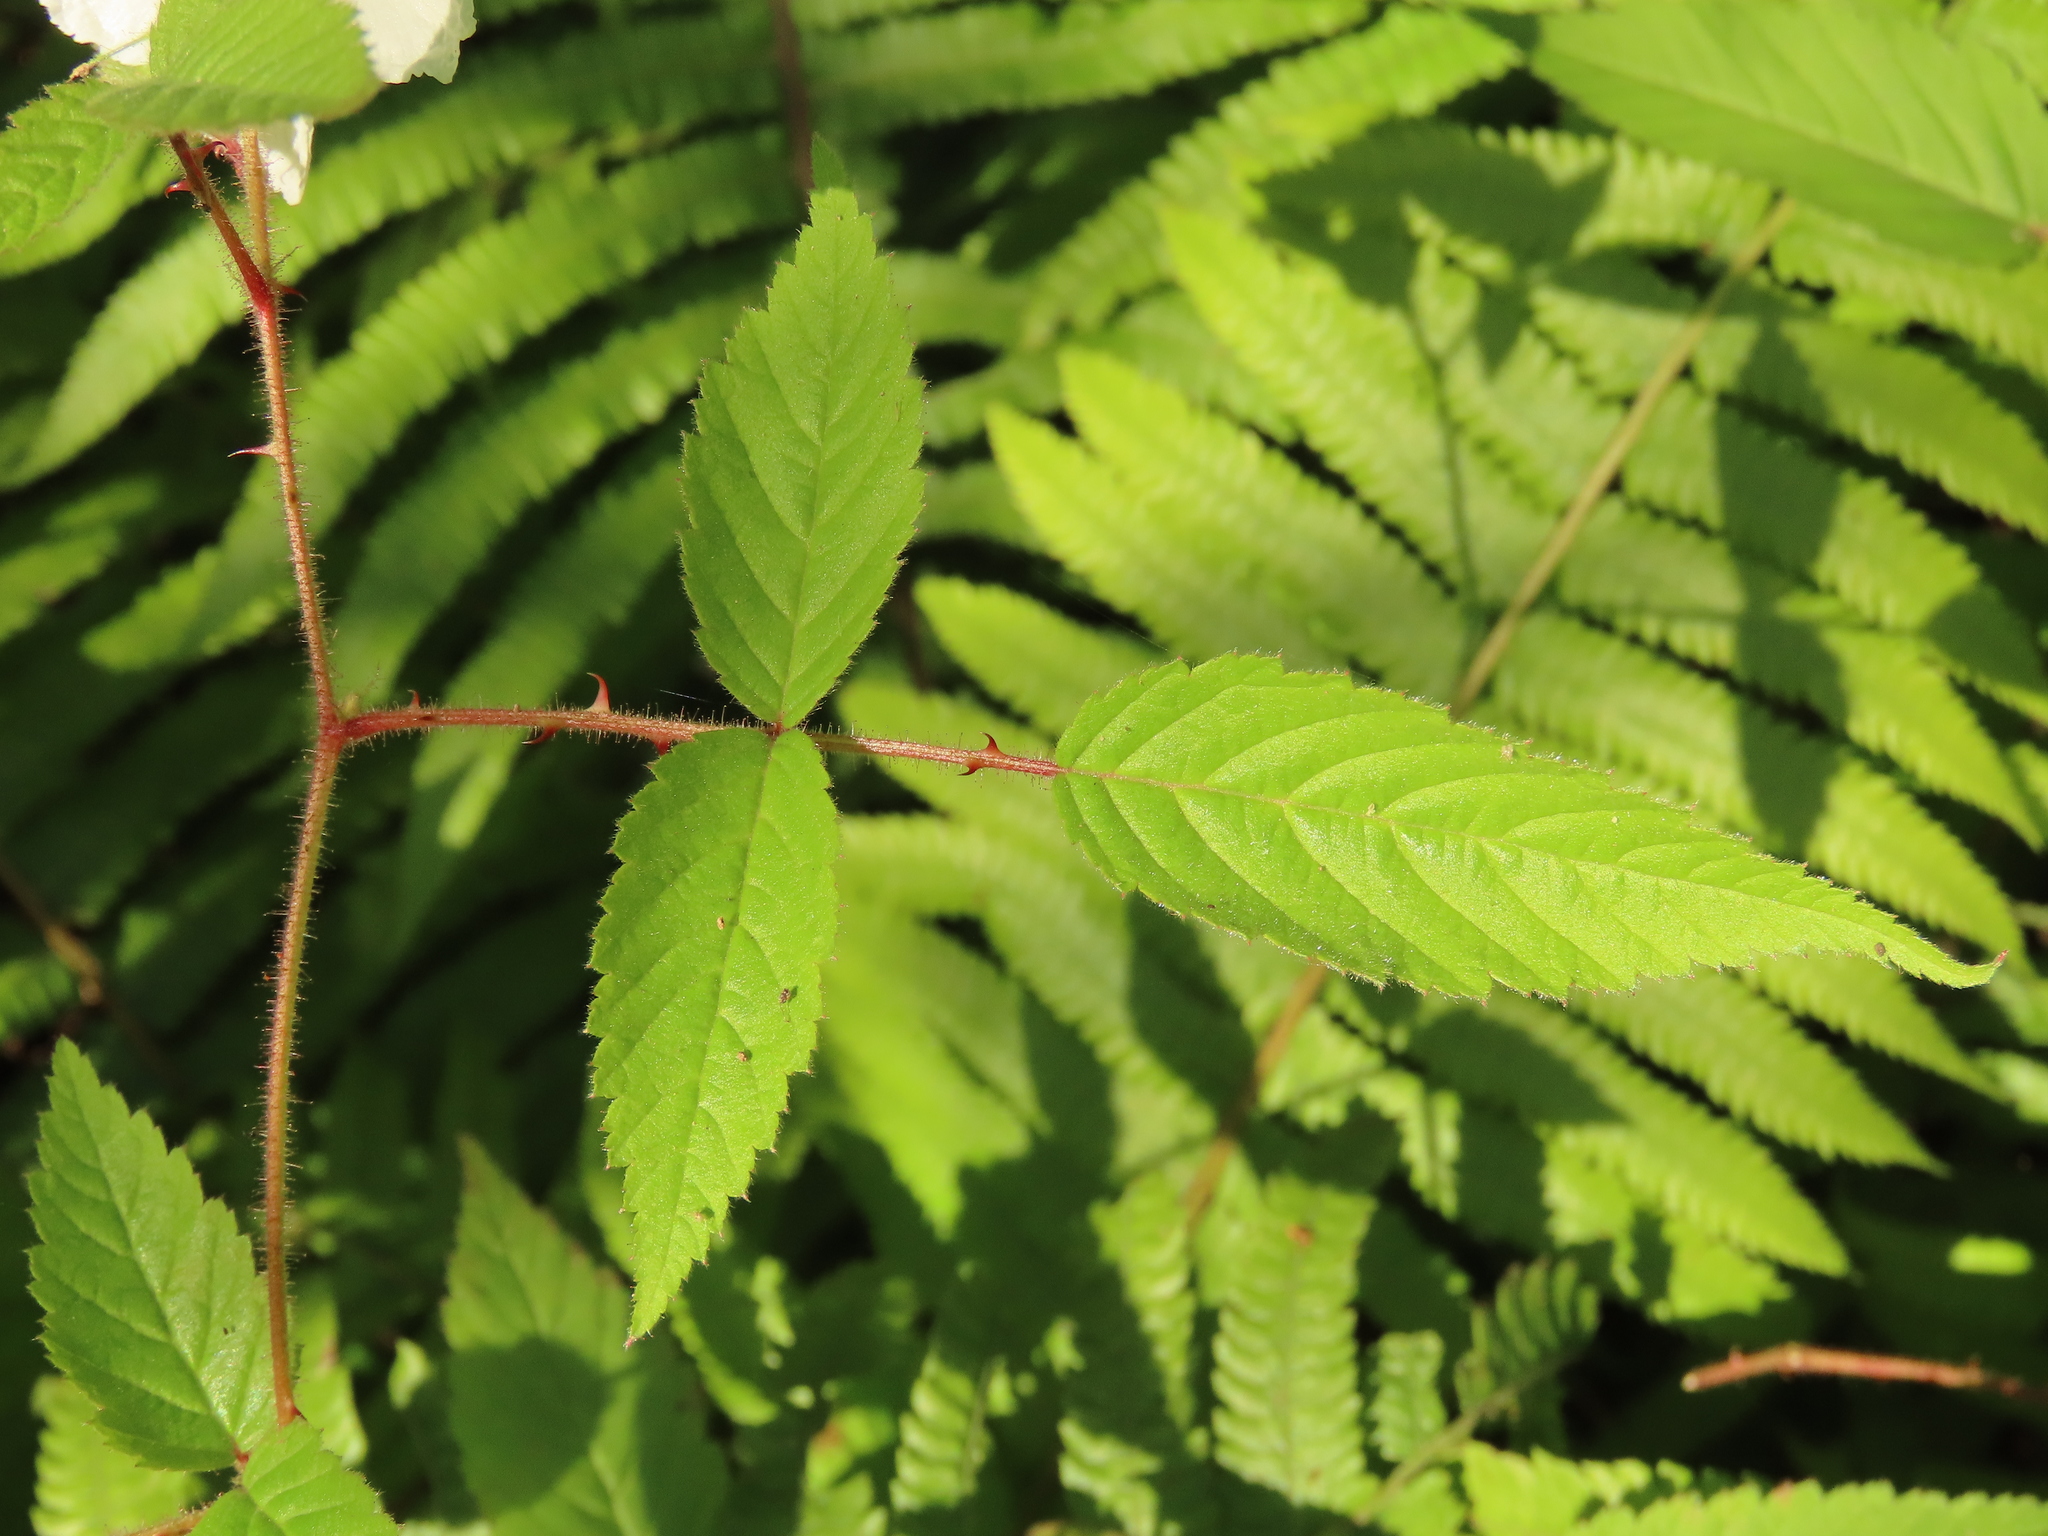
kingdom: Plantae
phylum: Tracheophyta
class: Magnoliopsida
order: Rosales
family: Rosaceae
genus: Rubus
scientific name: Rubus croceacanthus
